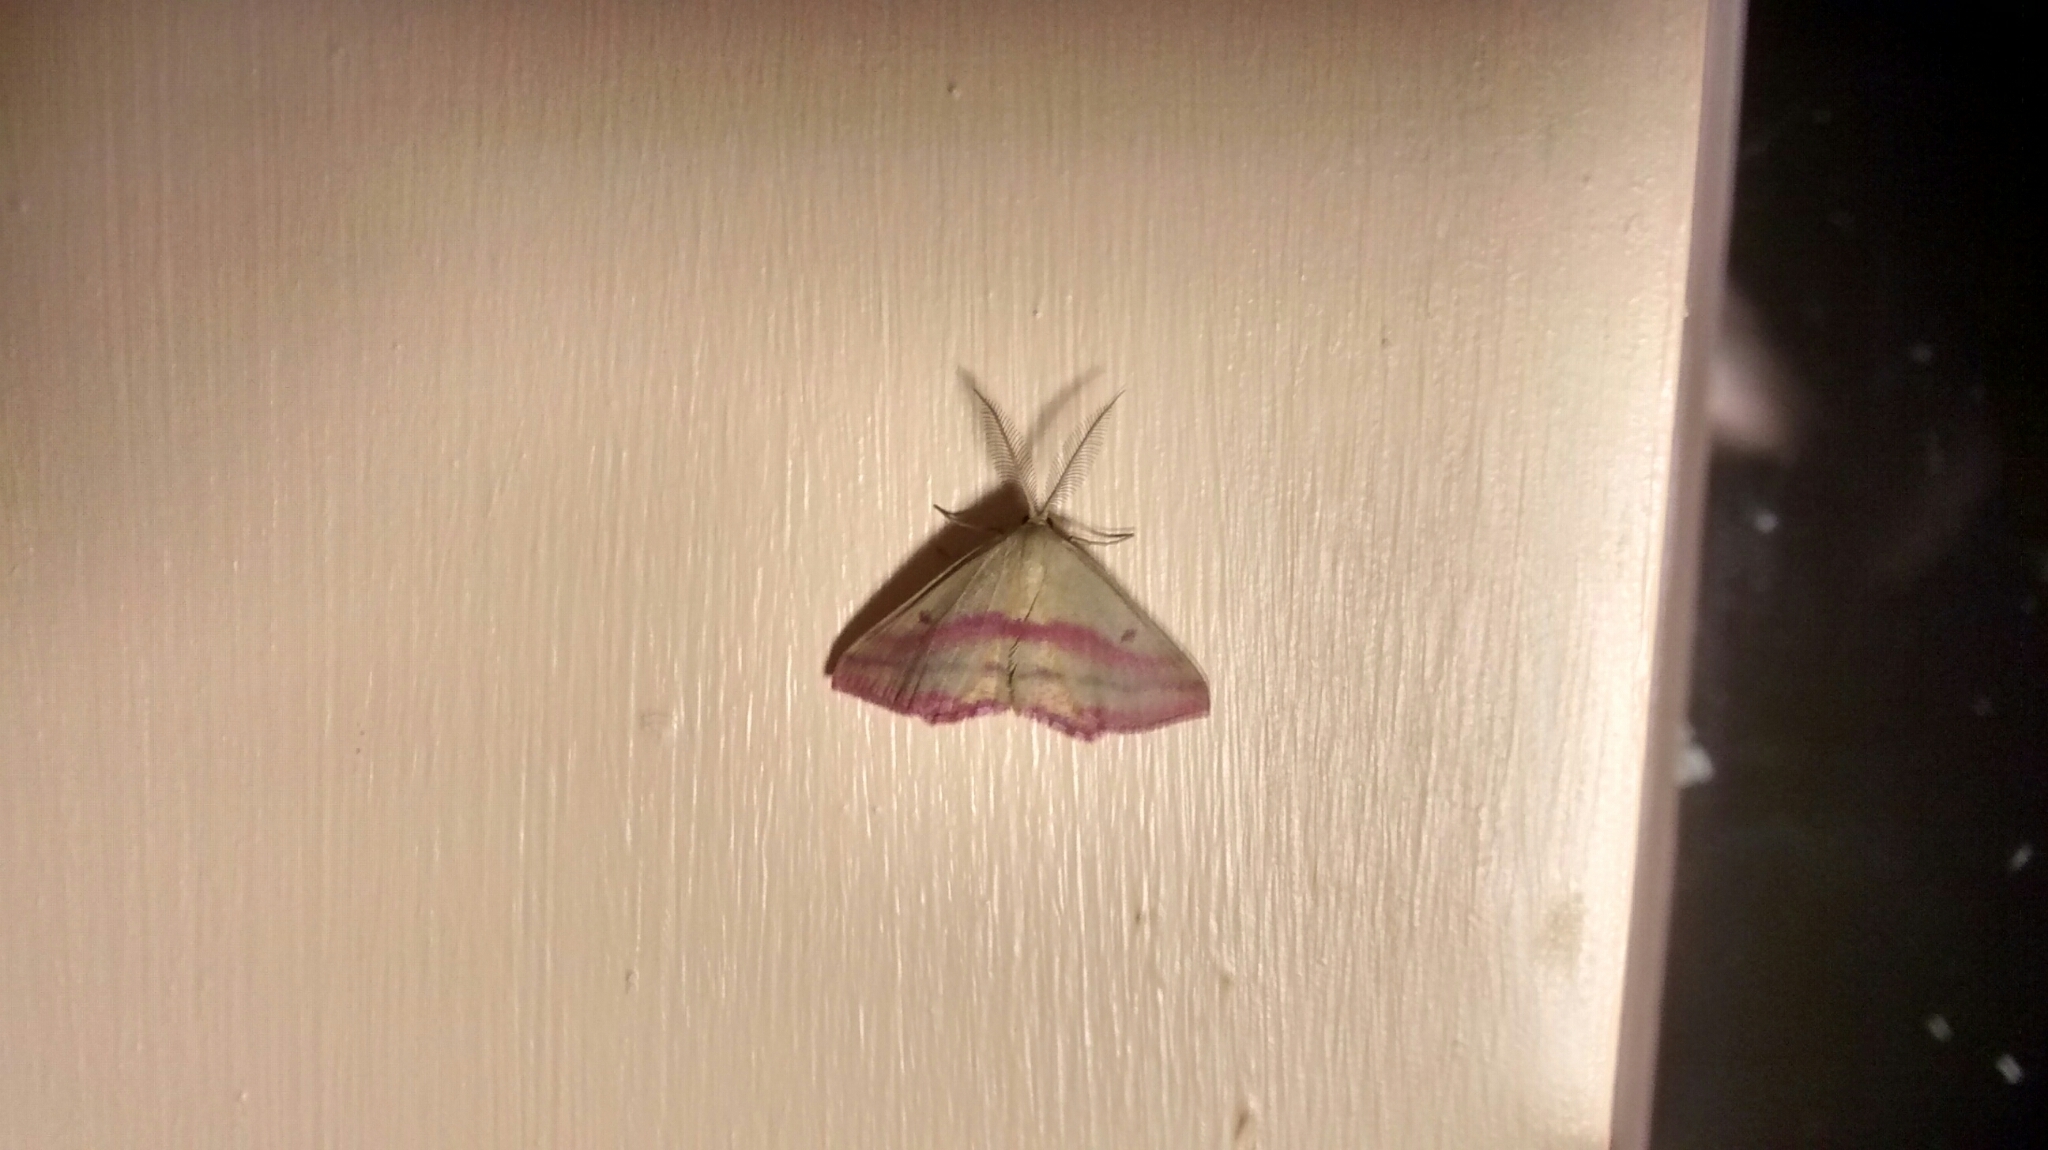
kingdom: Animalia
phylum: Arthropoda
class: Insecta
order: Lepidoptera
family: Geometridae
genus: Haematopis
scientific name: Haematopis grataria
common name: Chickweed geometer
